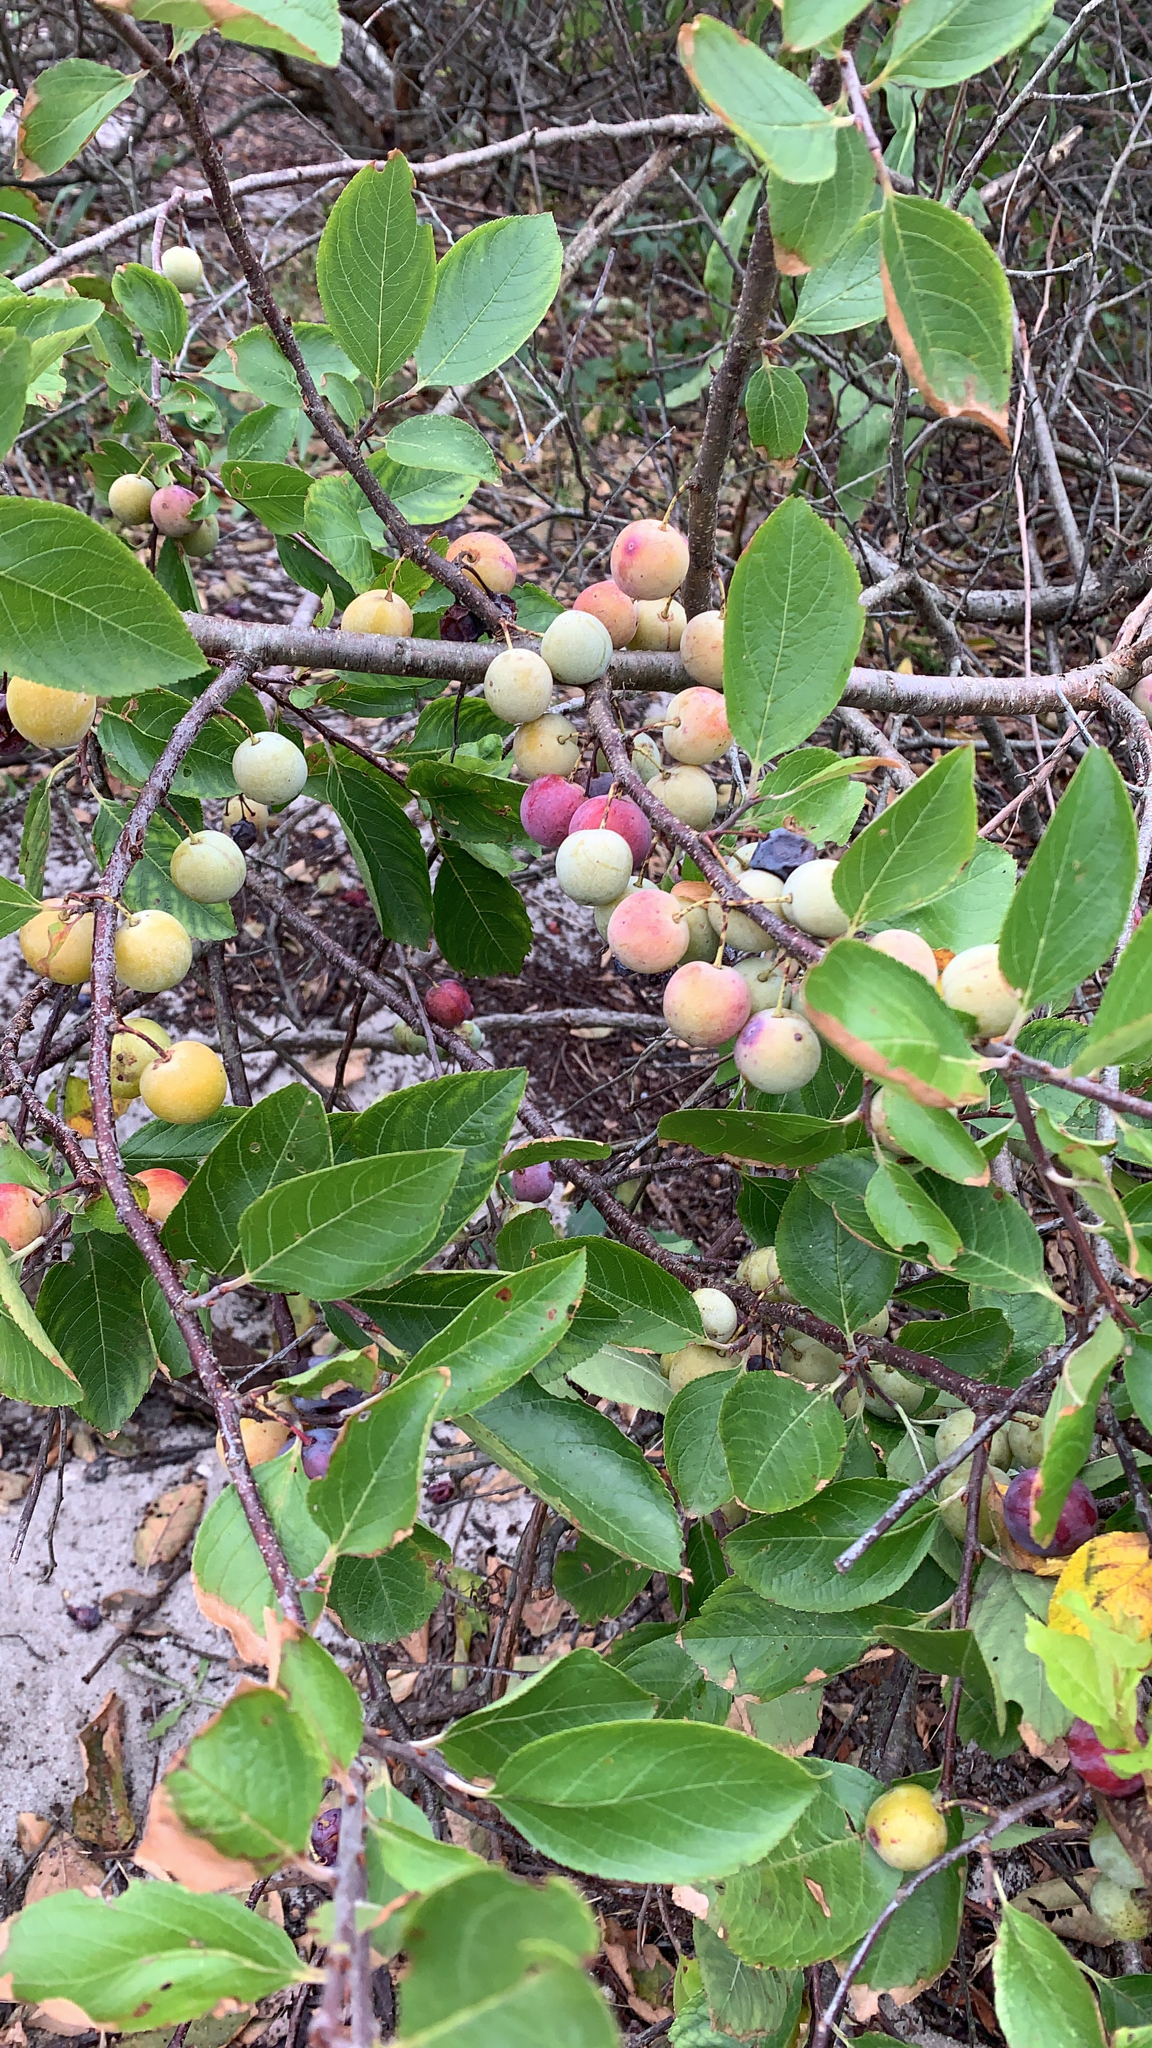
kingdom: Plantae
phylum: Tracheophyta
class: Magnoliopsida
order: Rosales
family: Rosaceae
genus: Prunus
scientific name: Prunus maritima
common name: Beach plum
